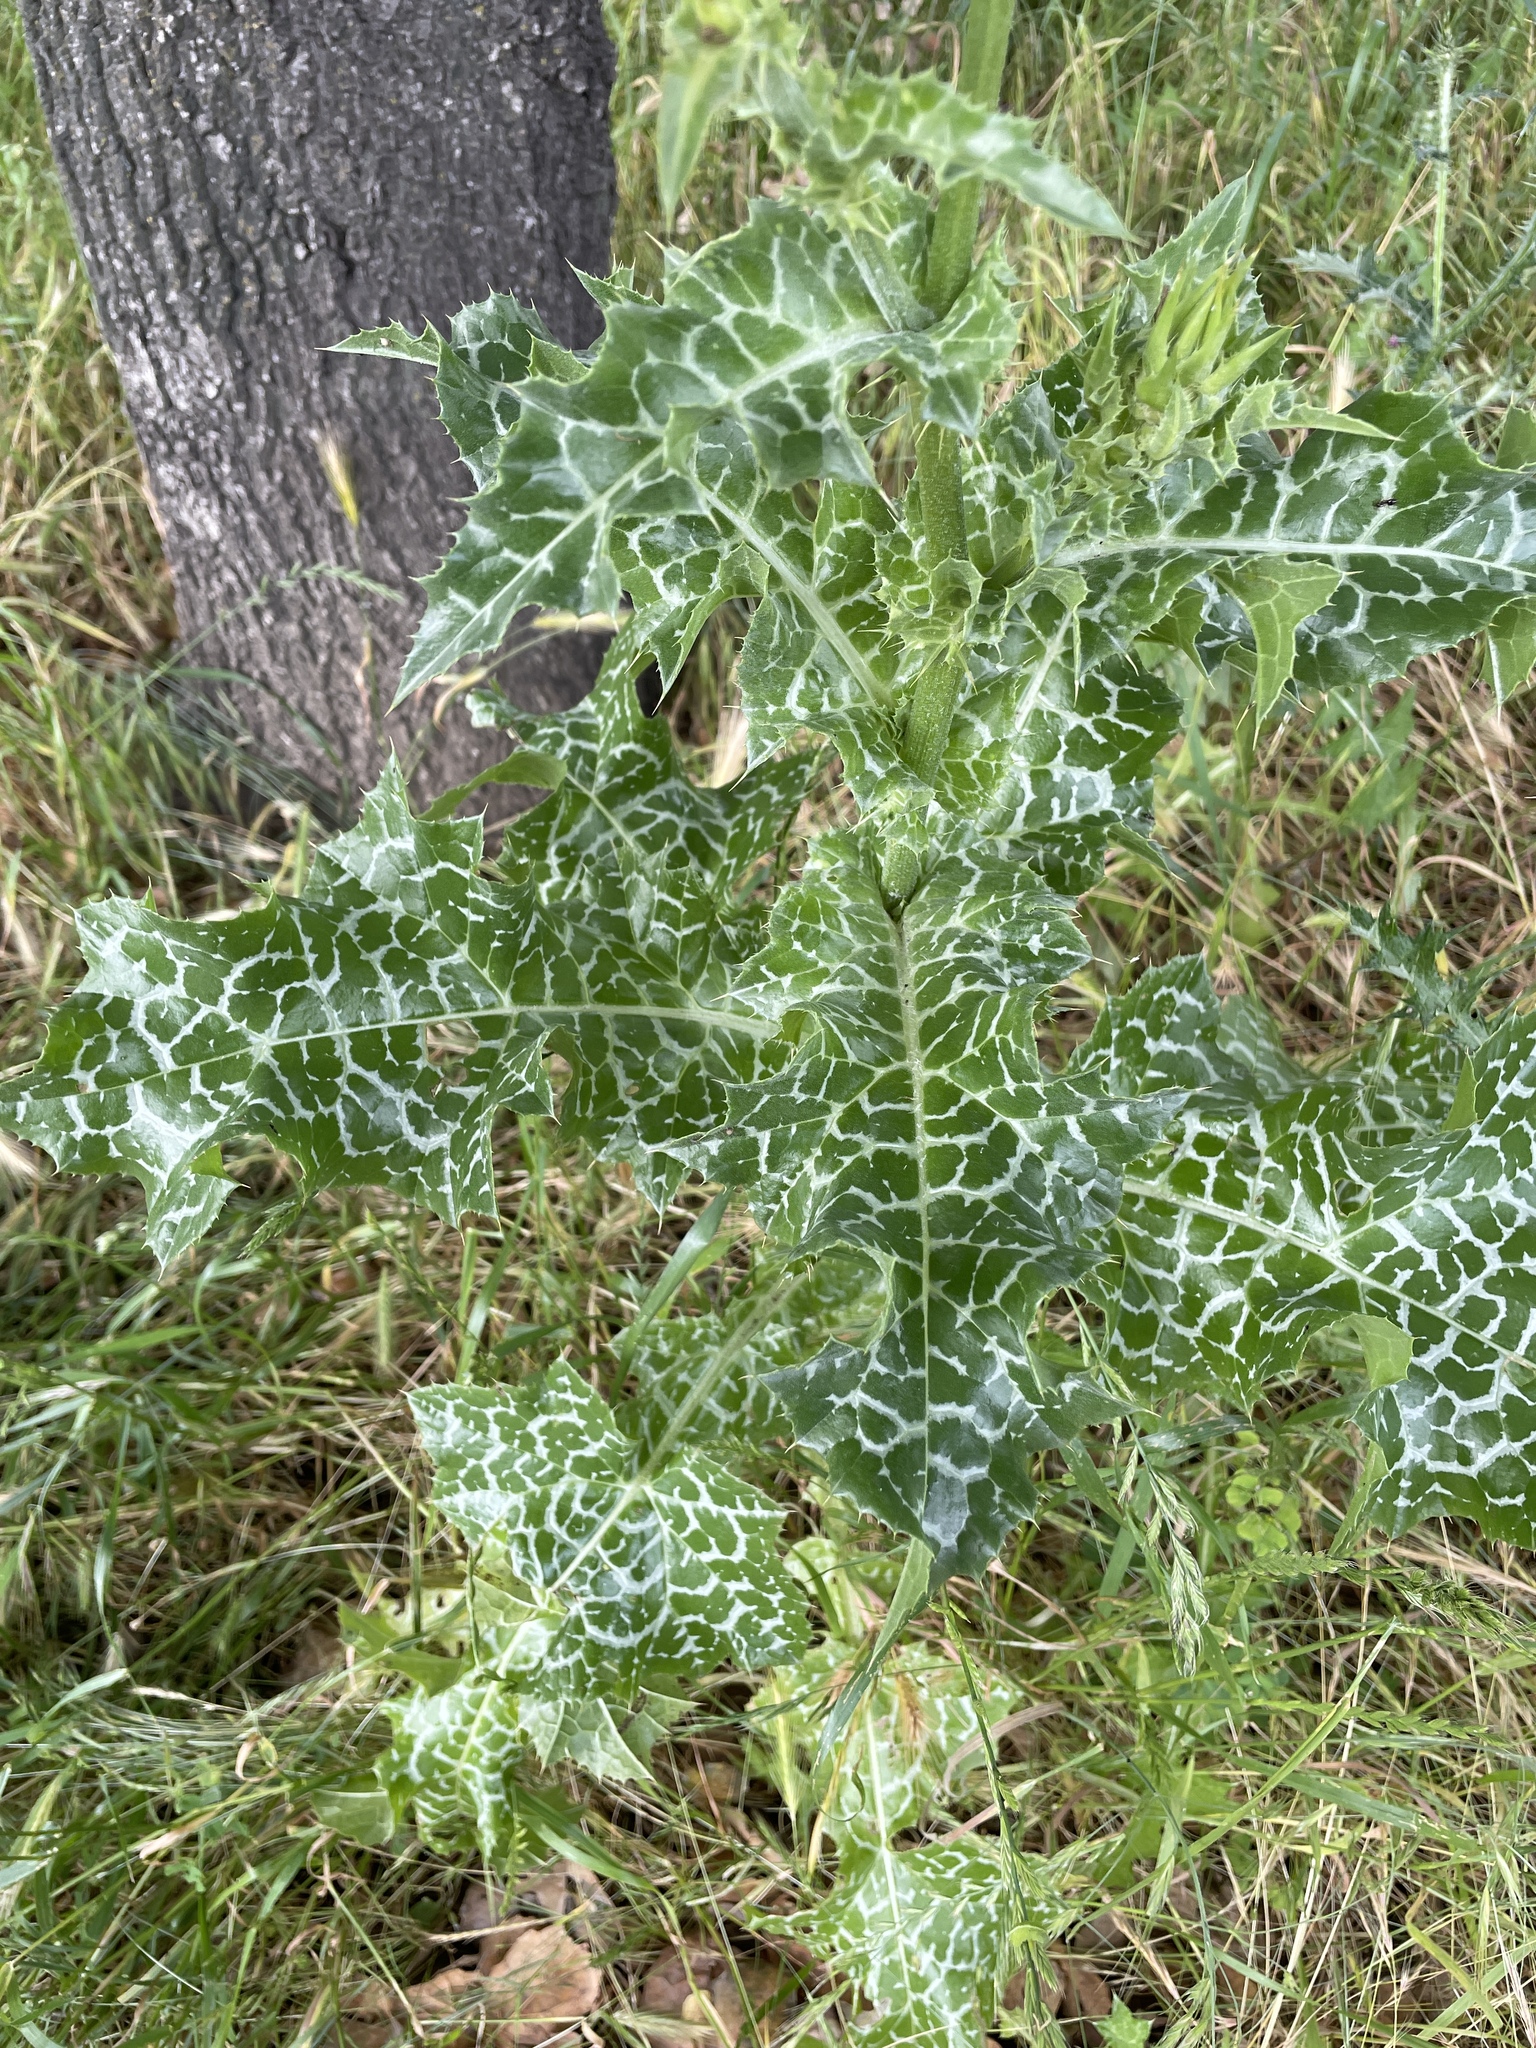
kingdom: Plantae
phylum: Tracheophyta
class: Magnoliopsida
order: Asterales
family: Asteraceae
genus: Silybum
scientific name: Silybum marianum
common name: Milk thistle
